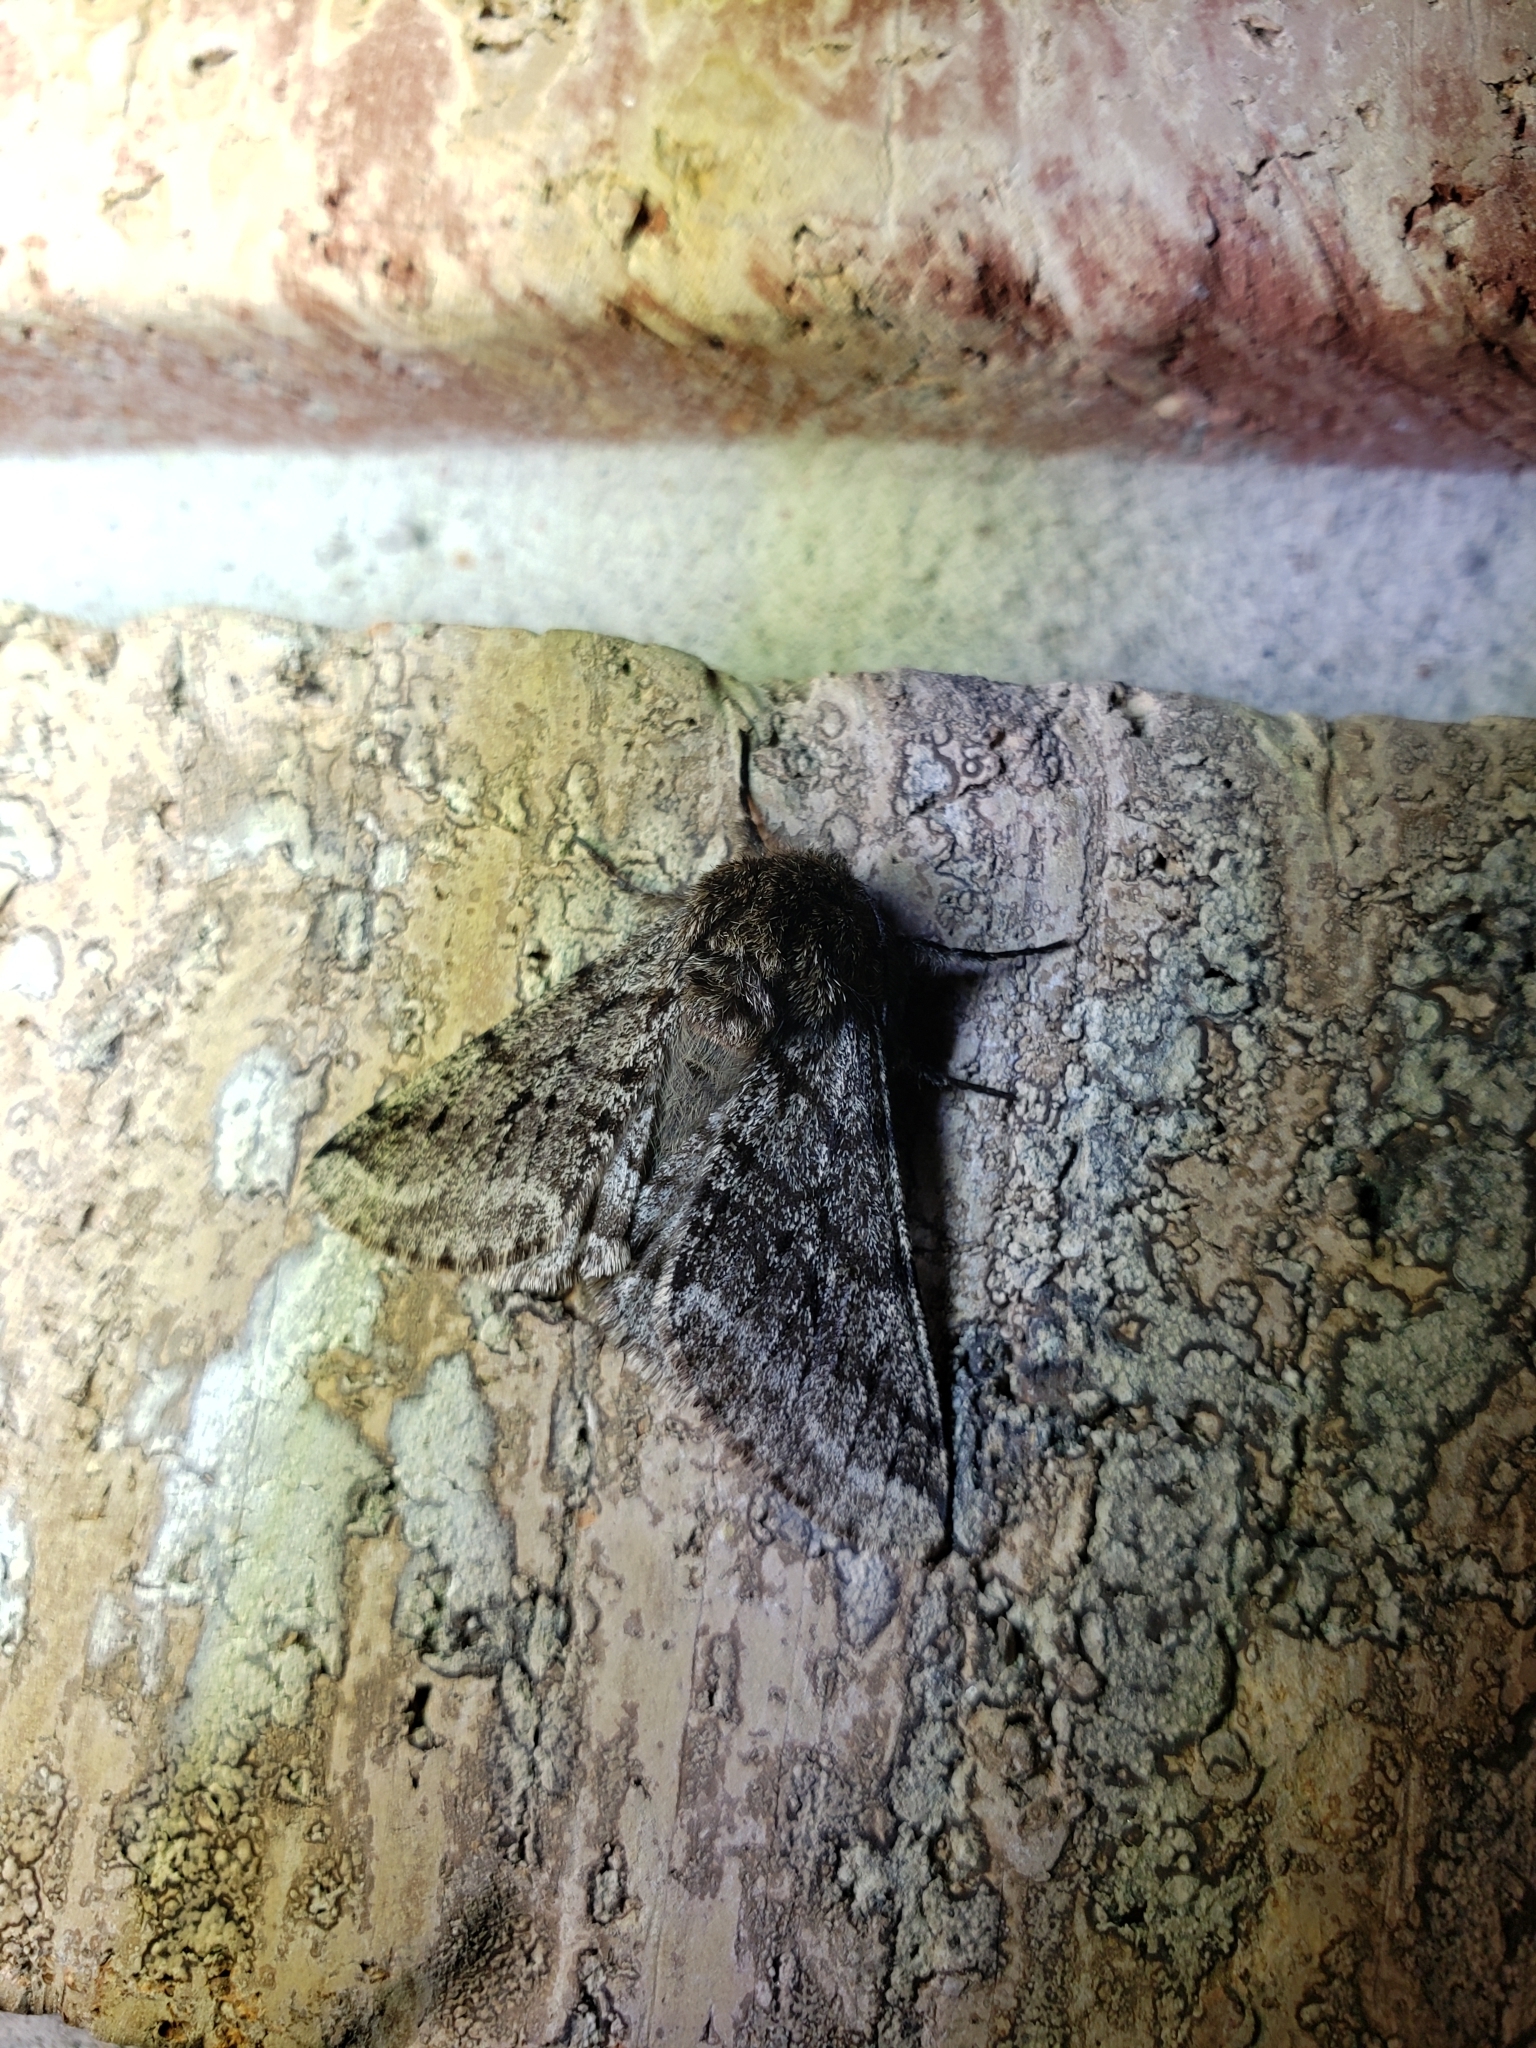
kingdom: Animalia
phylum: Arthropoda
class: Insecta
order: Lepidoptera
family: Geometridae
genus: Lycia
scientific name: Lycia ursaria
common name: Stout spanworm
